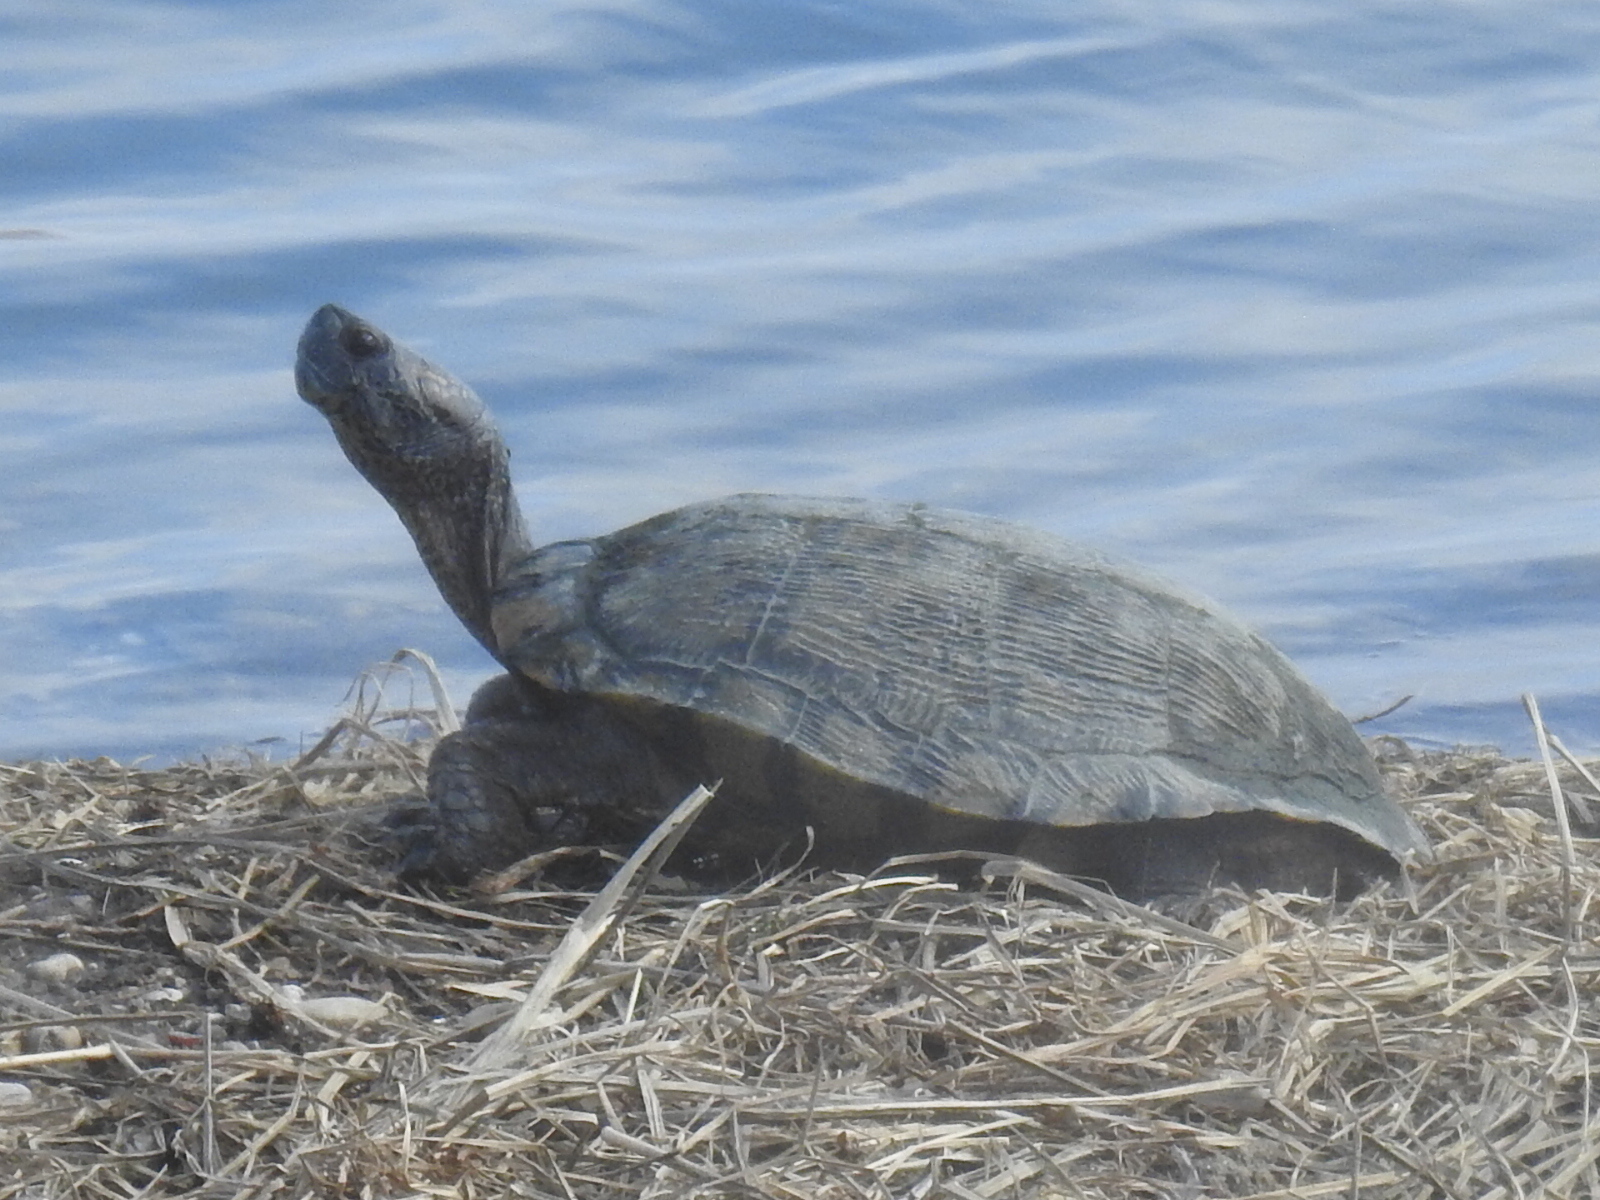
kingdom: Animalia
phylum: Chordata
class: Testudines
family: Emydidae
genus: Trachemys
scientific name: Trachemys scripta
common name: Slider
